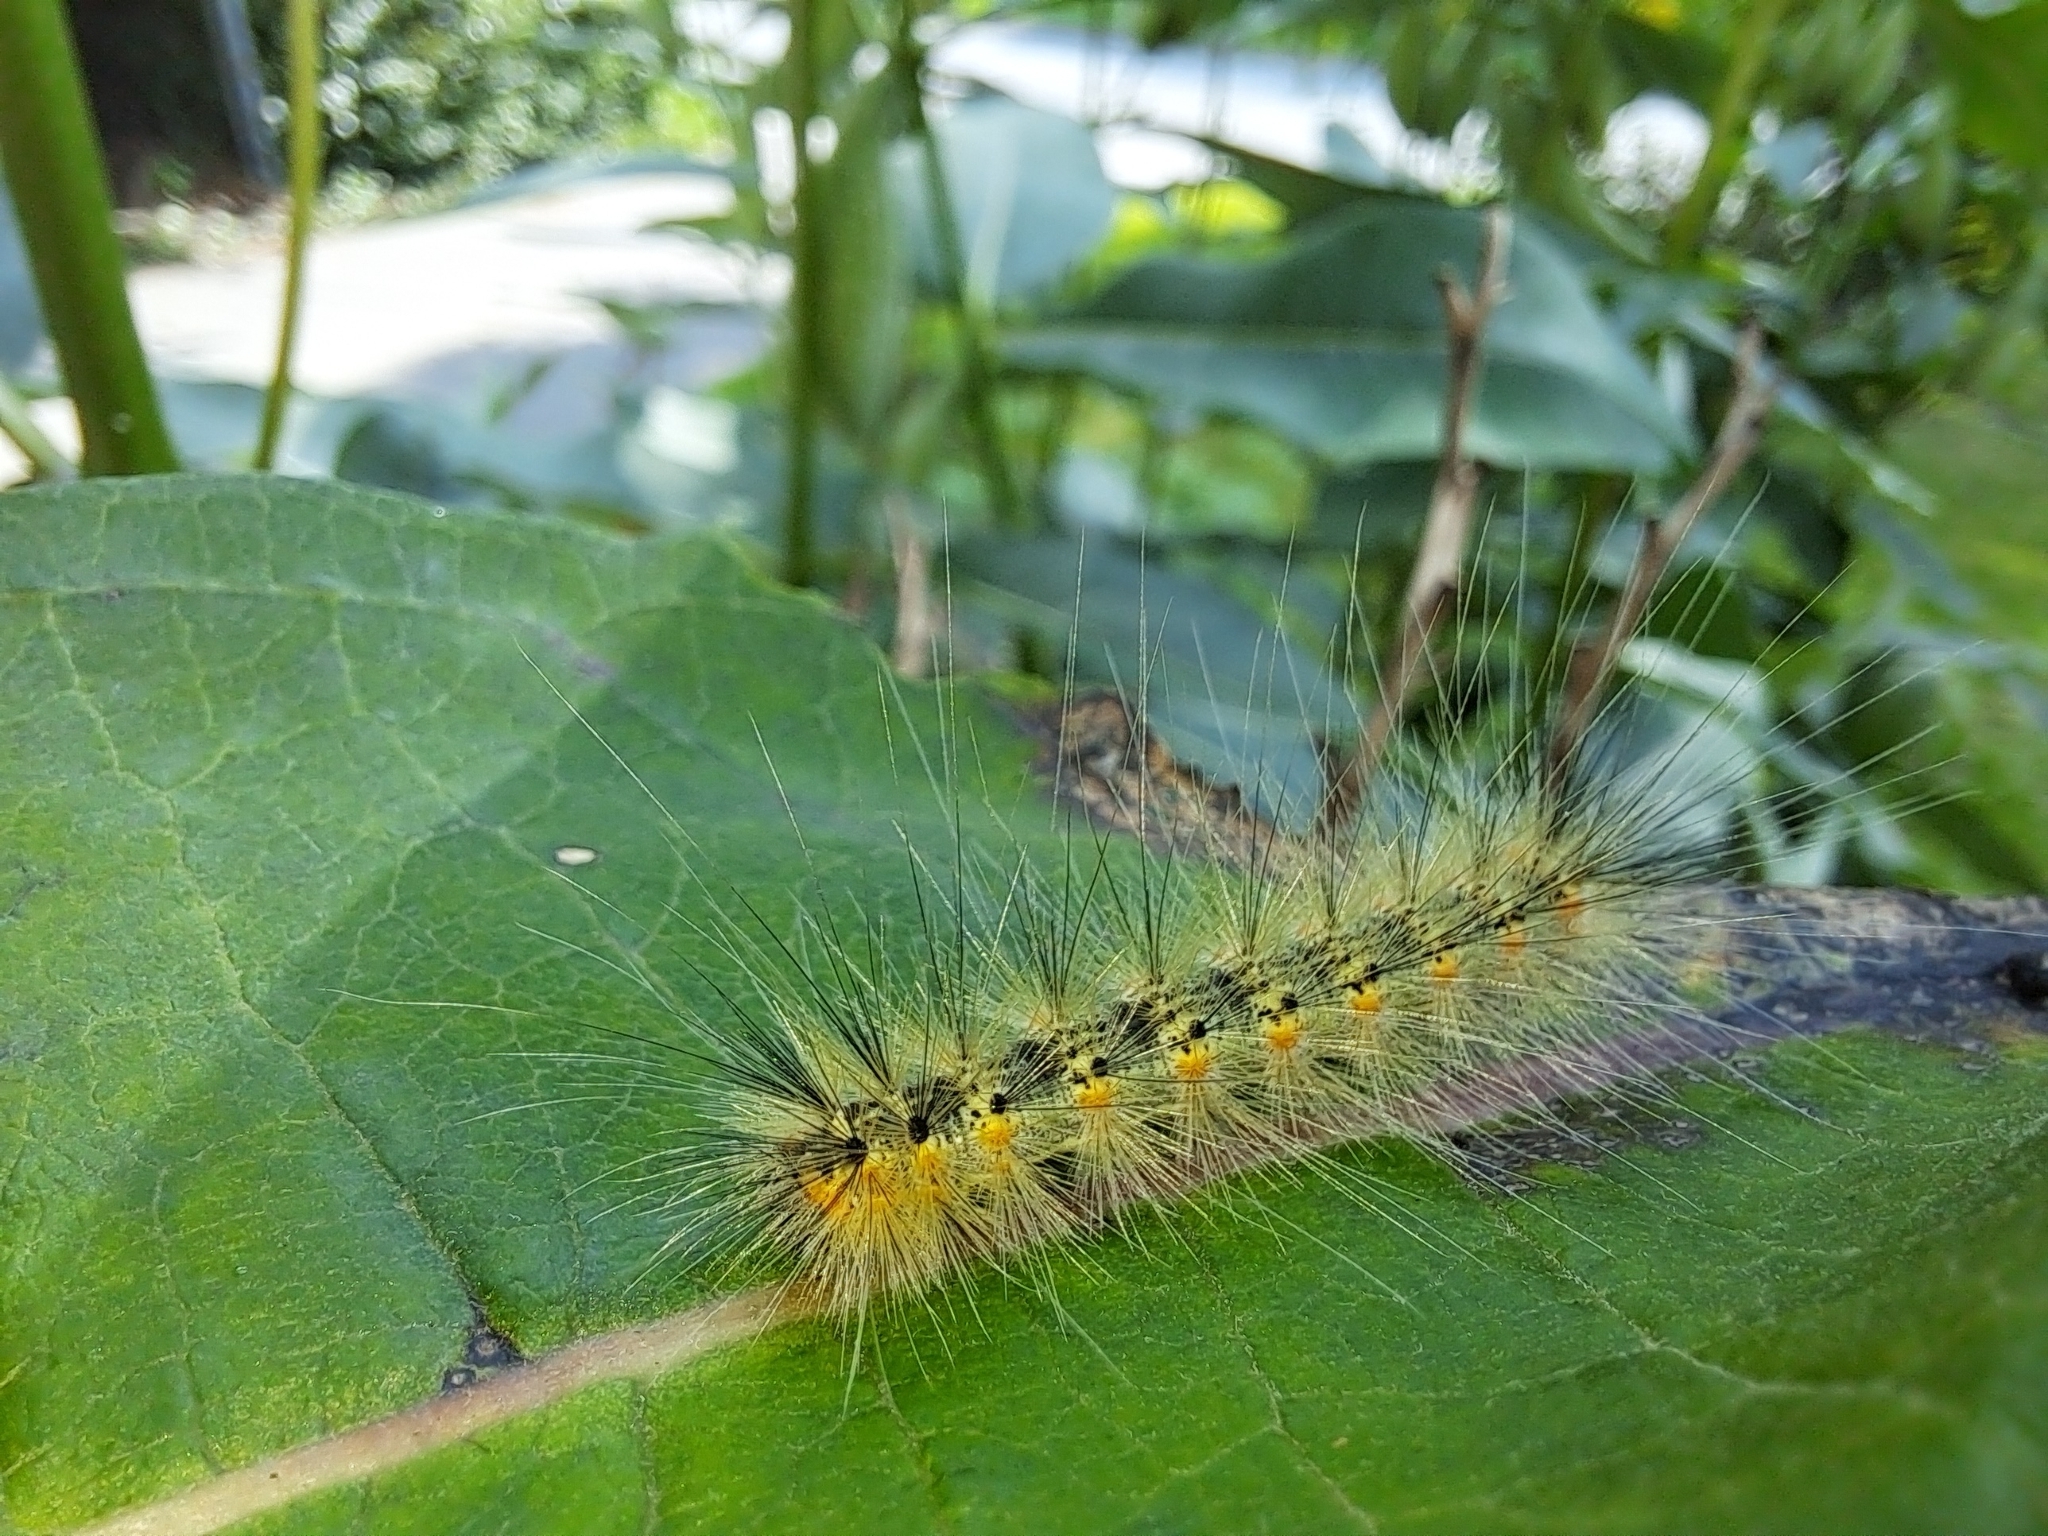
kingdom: Animalia
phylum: Arthropoda
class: Insecta
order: Lepidoptera
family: Erebidae
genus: Hyphantria
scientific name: Hyphantria cunea
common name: American white moth
